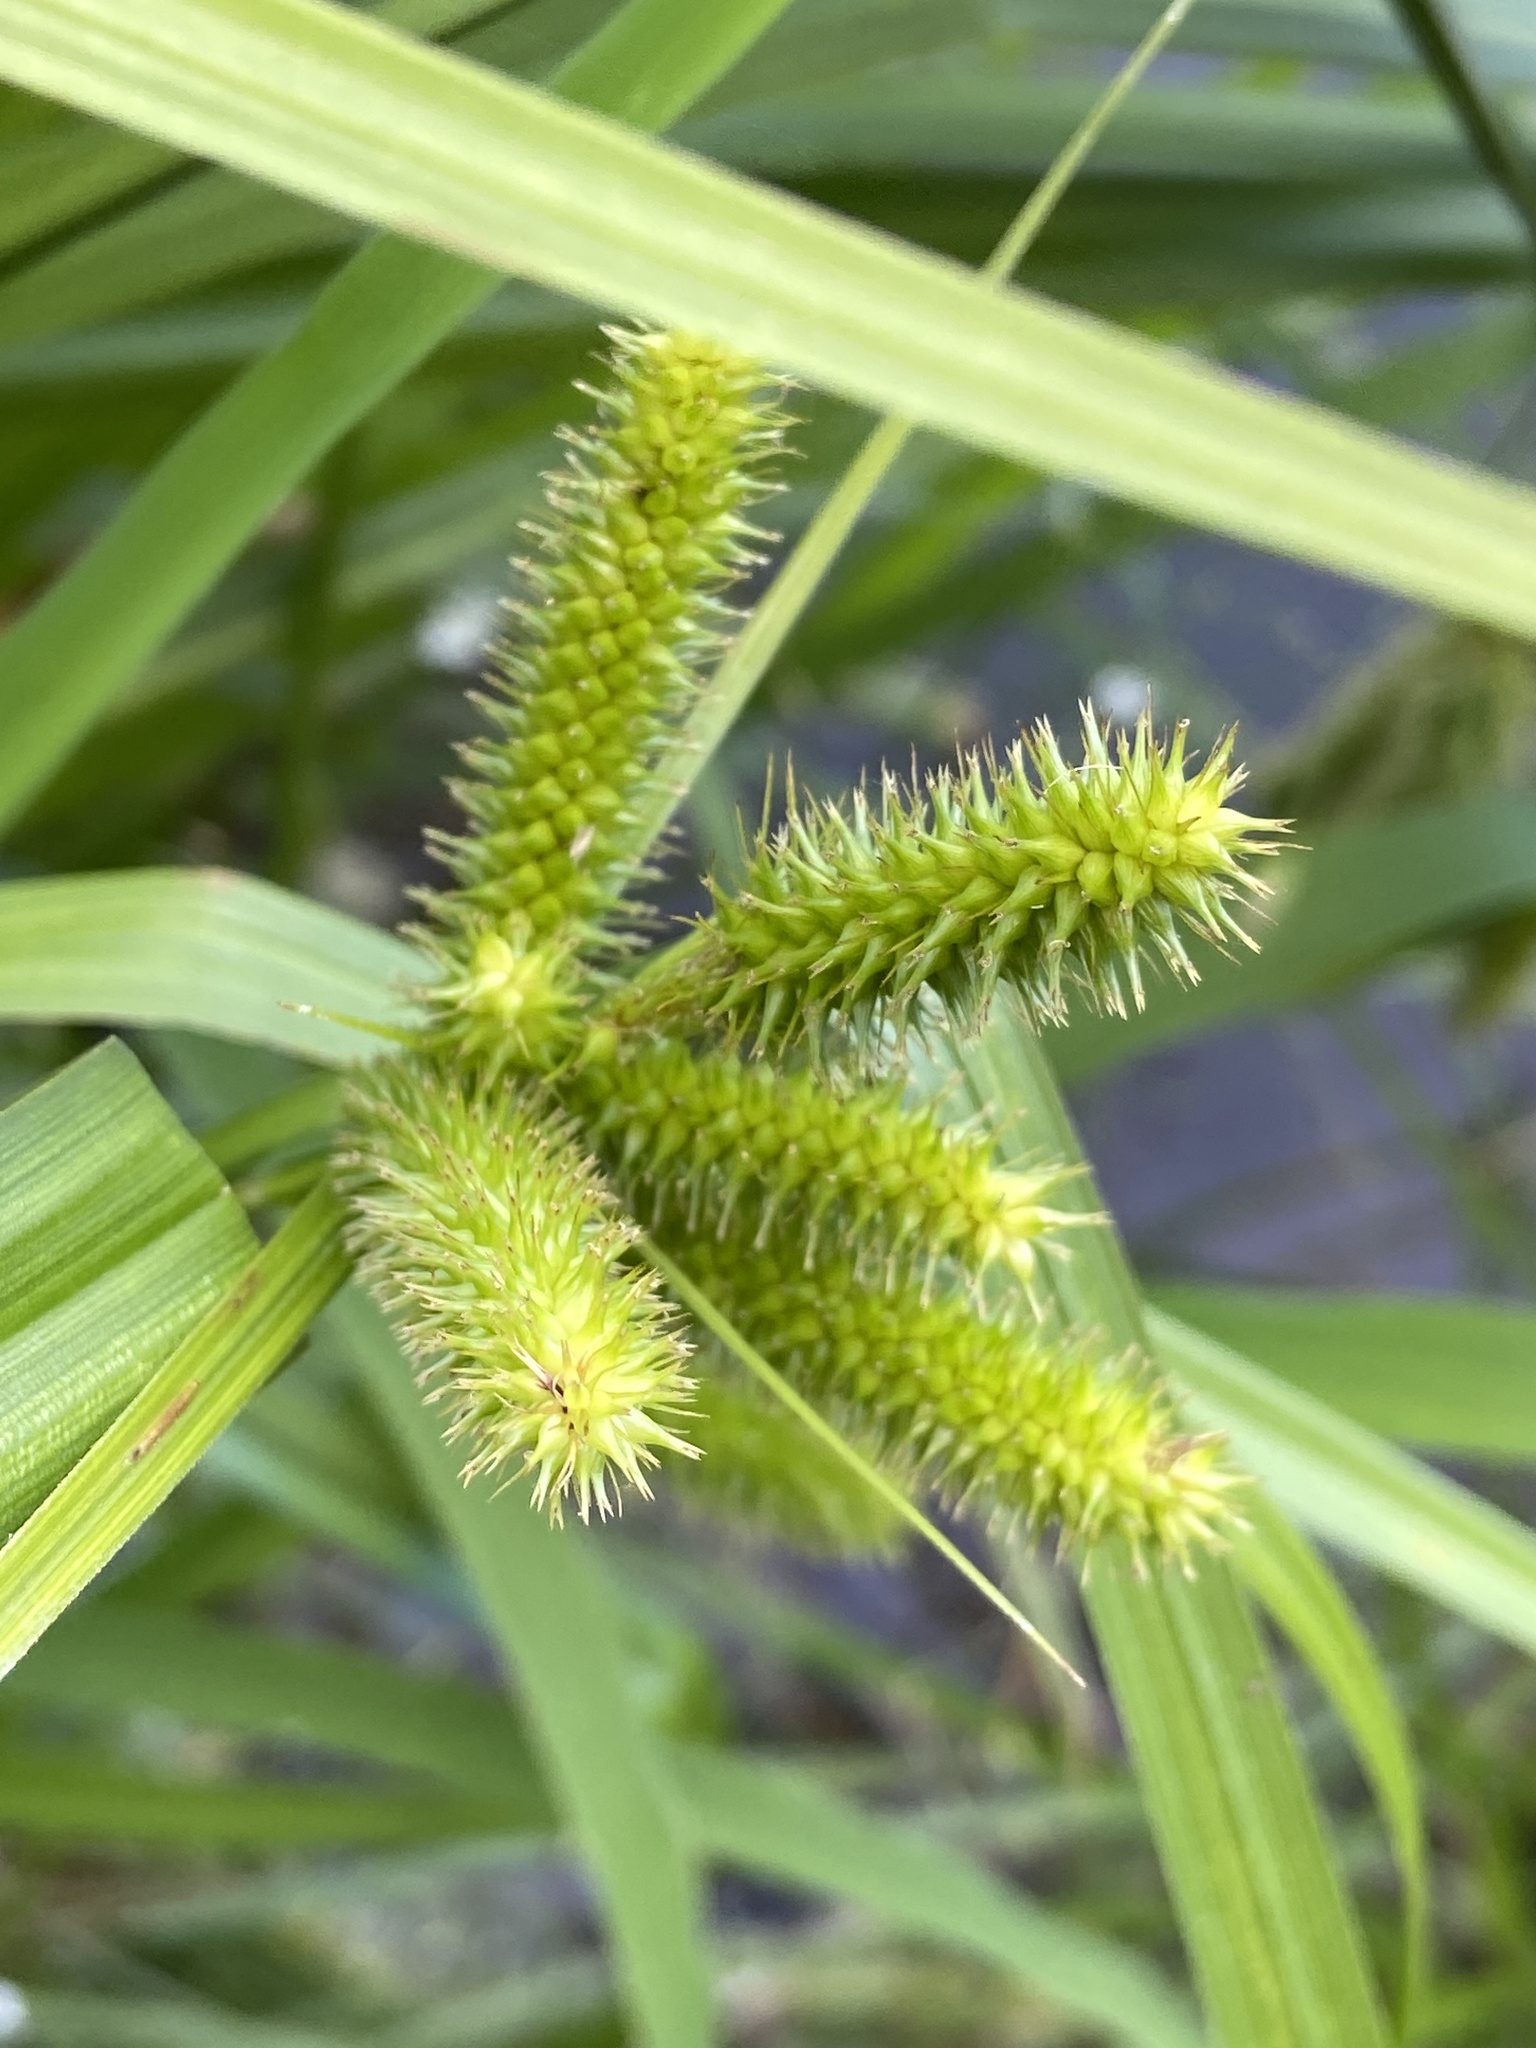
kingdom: Plantae
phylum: Tracheophyta
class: Liliopsida
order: Poales
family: Cyperaceae
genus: Carex
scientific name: Carex pseudocyperus
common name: Cyperus sedge
